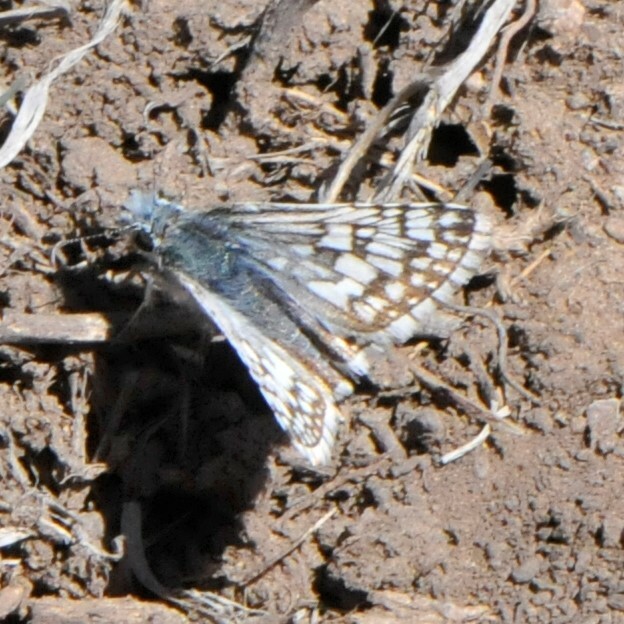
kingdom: Animalia
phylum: Arthropoda
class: Insecta
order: Lepidoptera
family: Hesperiidae
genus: Burnsius
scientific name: Burnsius
